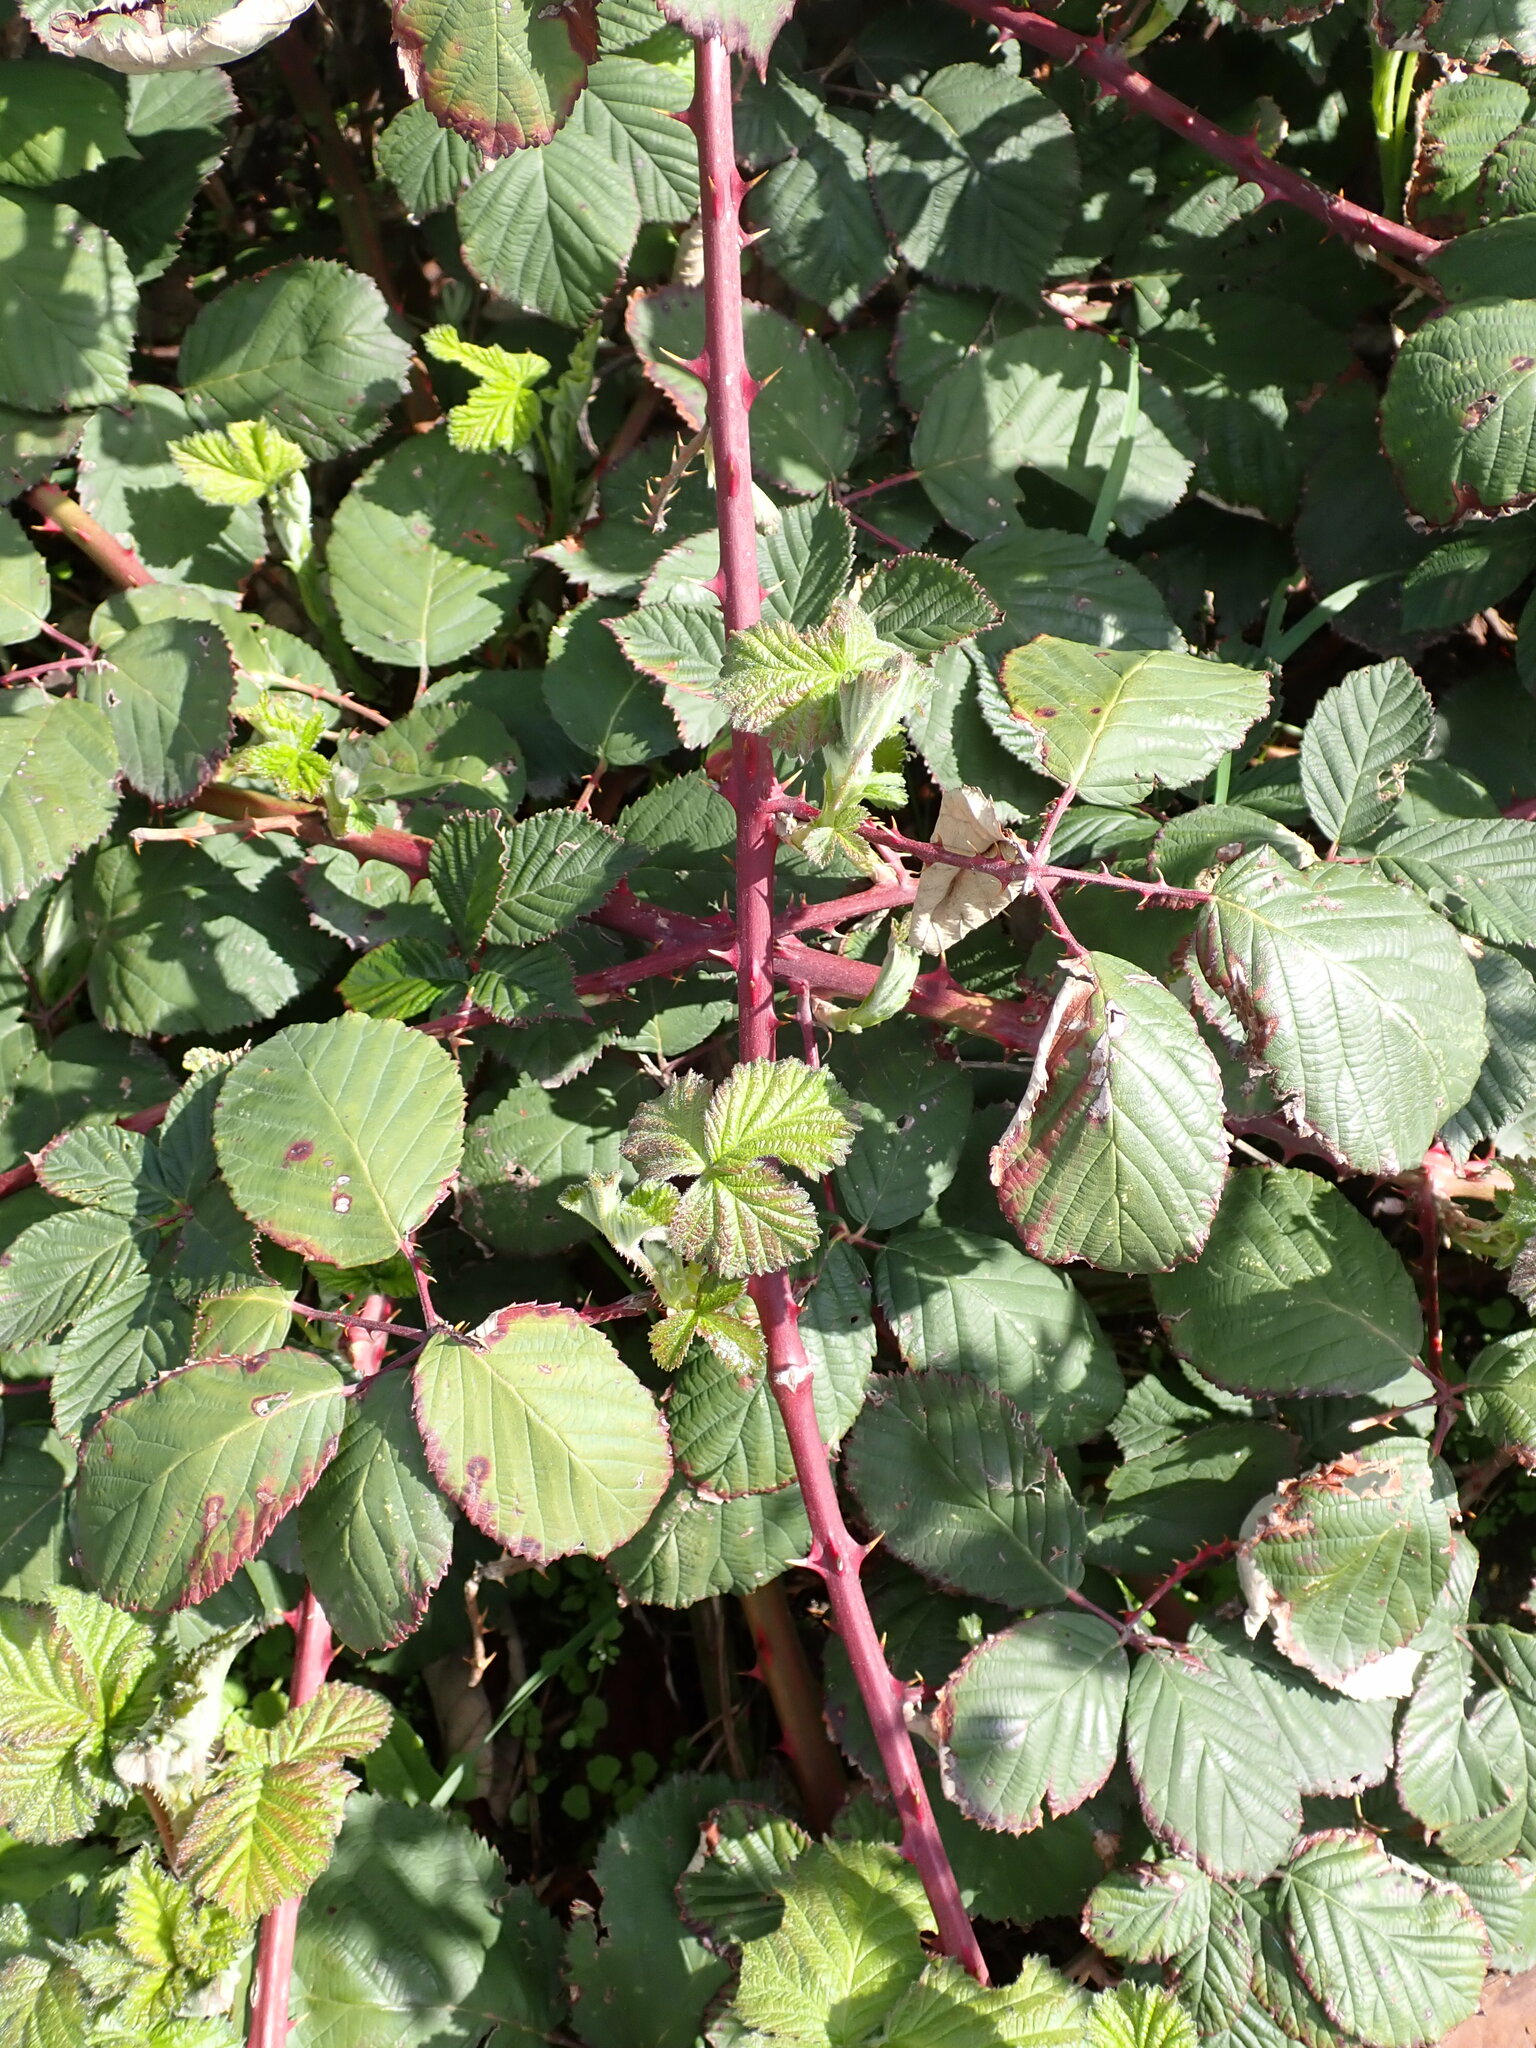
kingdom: Plantae
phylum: Tracheophyta
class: Magnoliopsida
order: Rosales
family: Rosaceae
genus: Rubus
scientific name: Rubus bifrons
